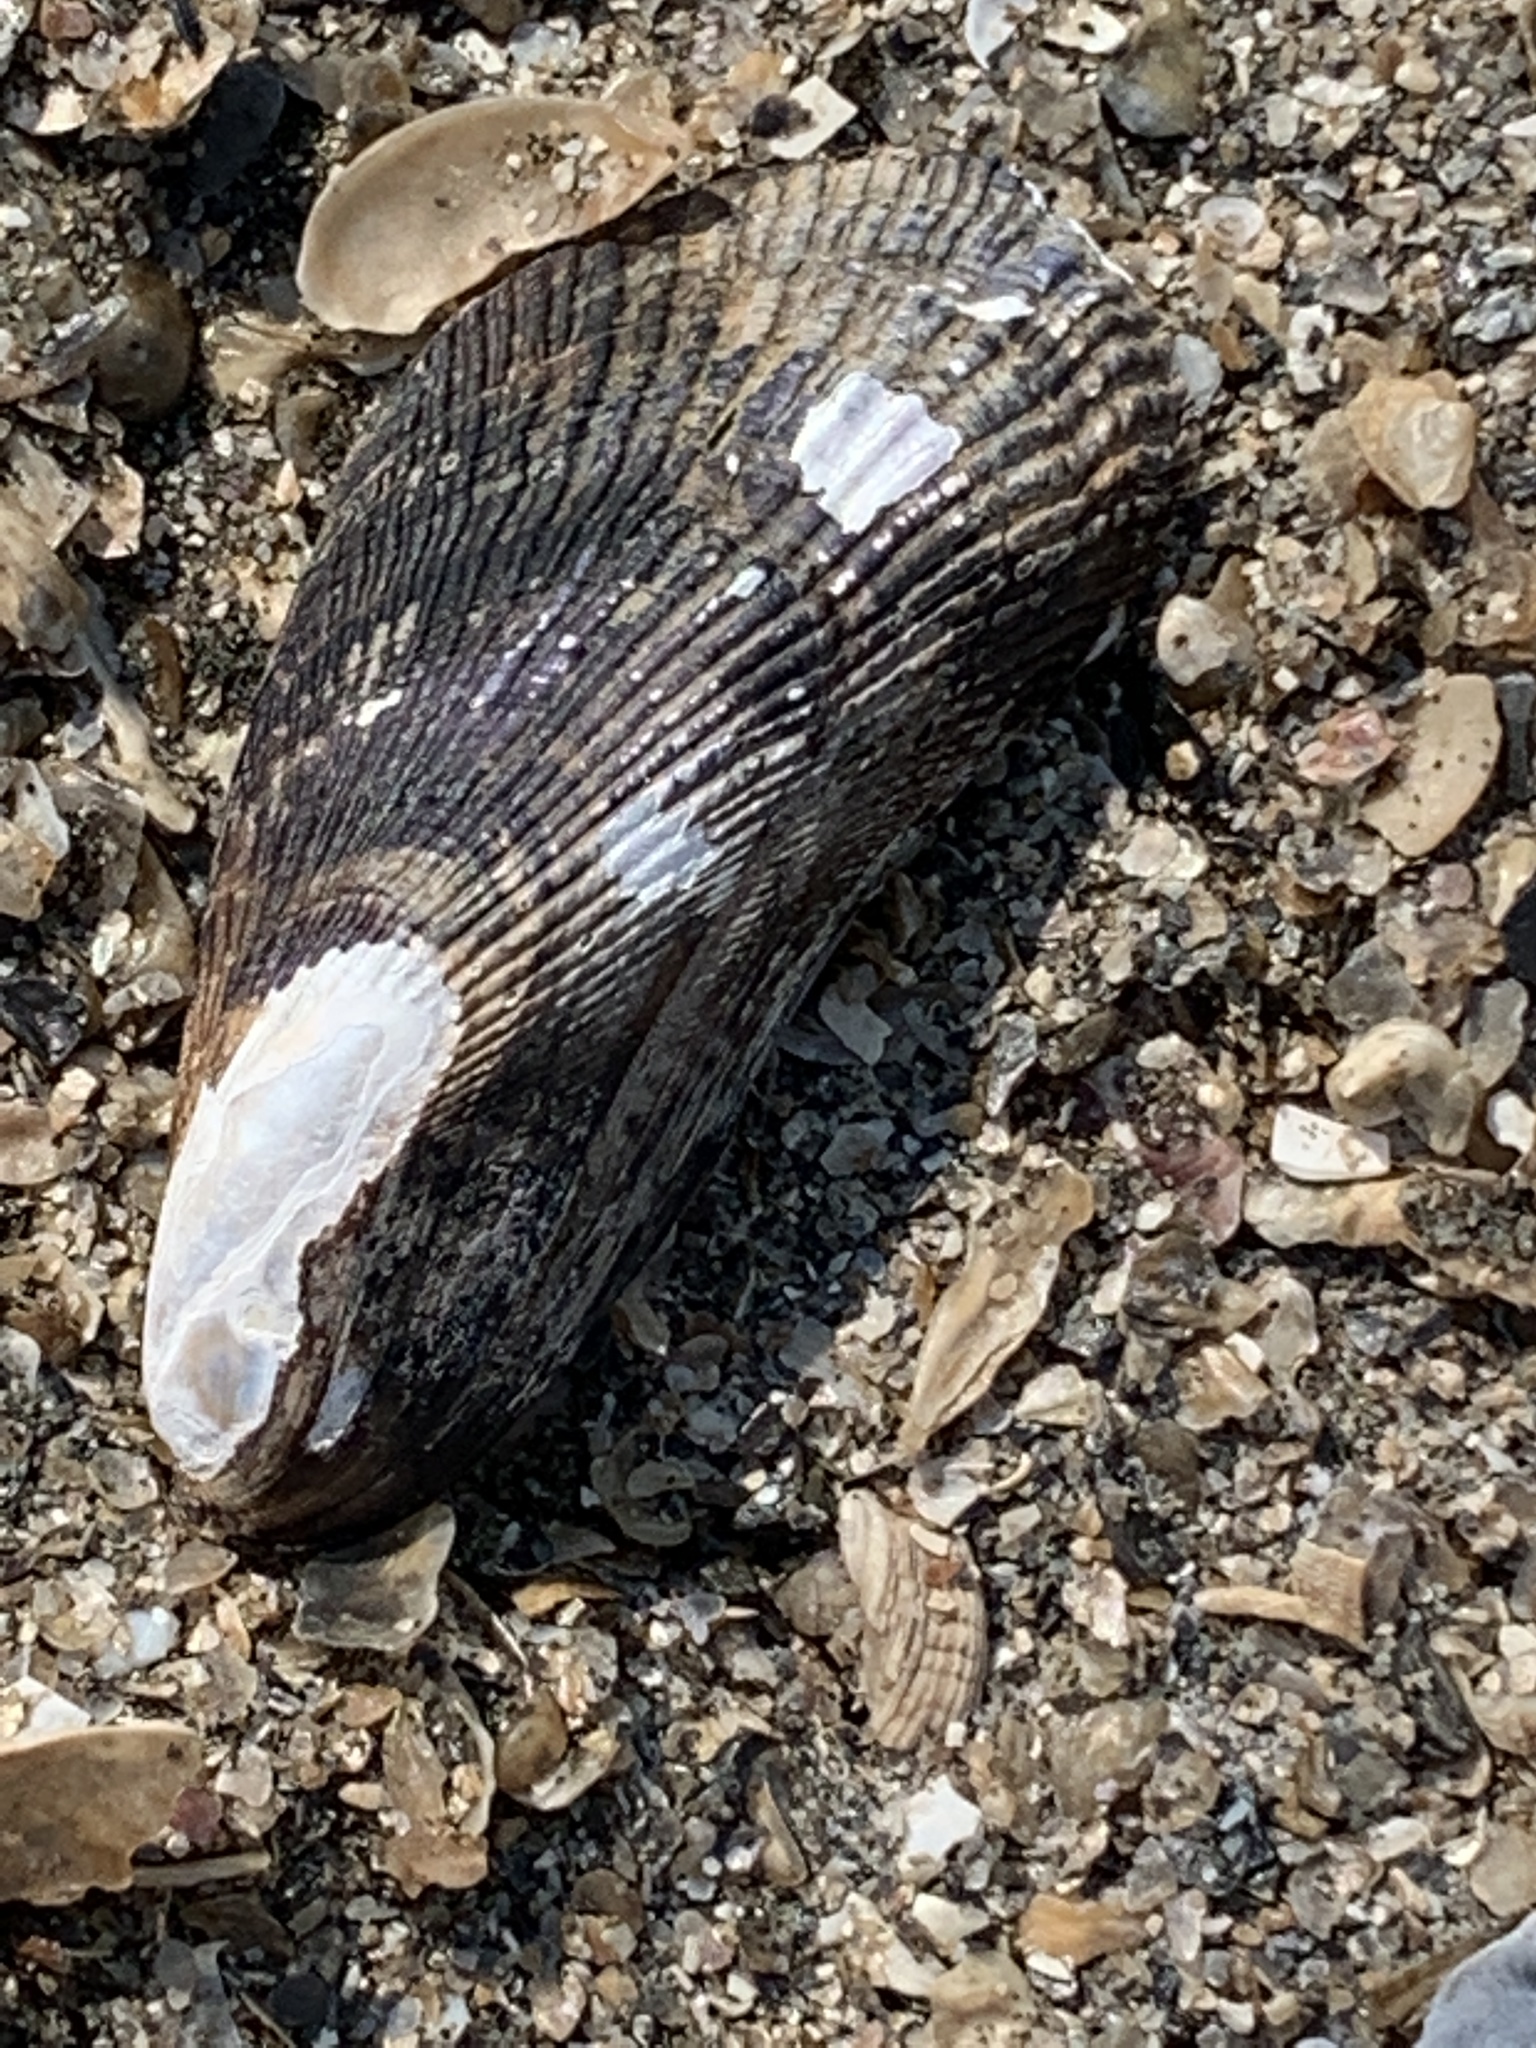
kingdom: Animalia
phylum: Mollusca
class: Bivalvia
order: Mytilida
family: Mytilidae
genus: Geukensia
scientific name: Geukensia demissa
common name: Ribbed mussel
